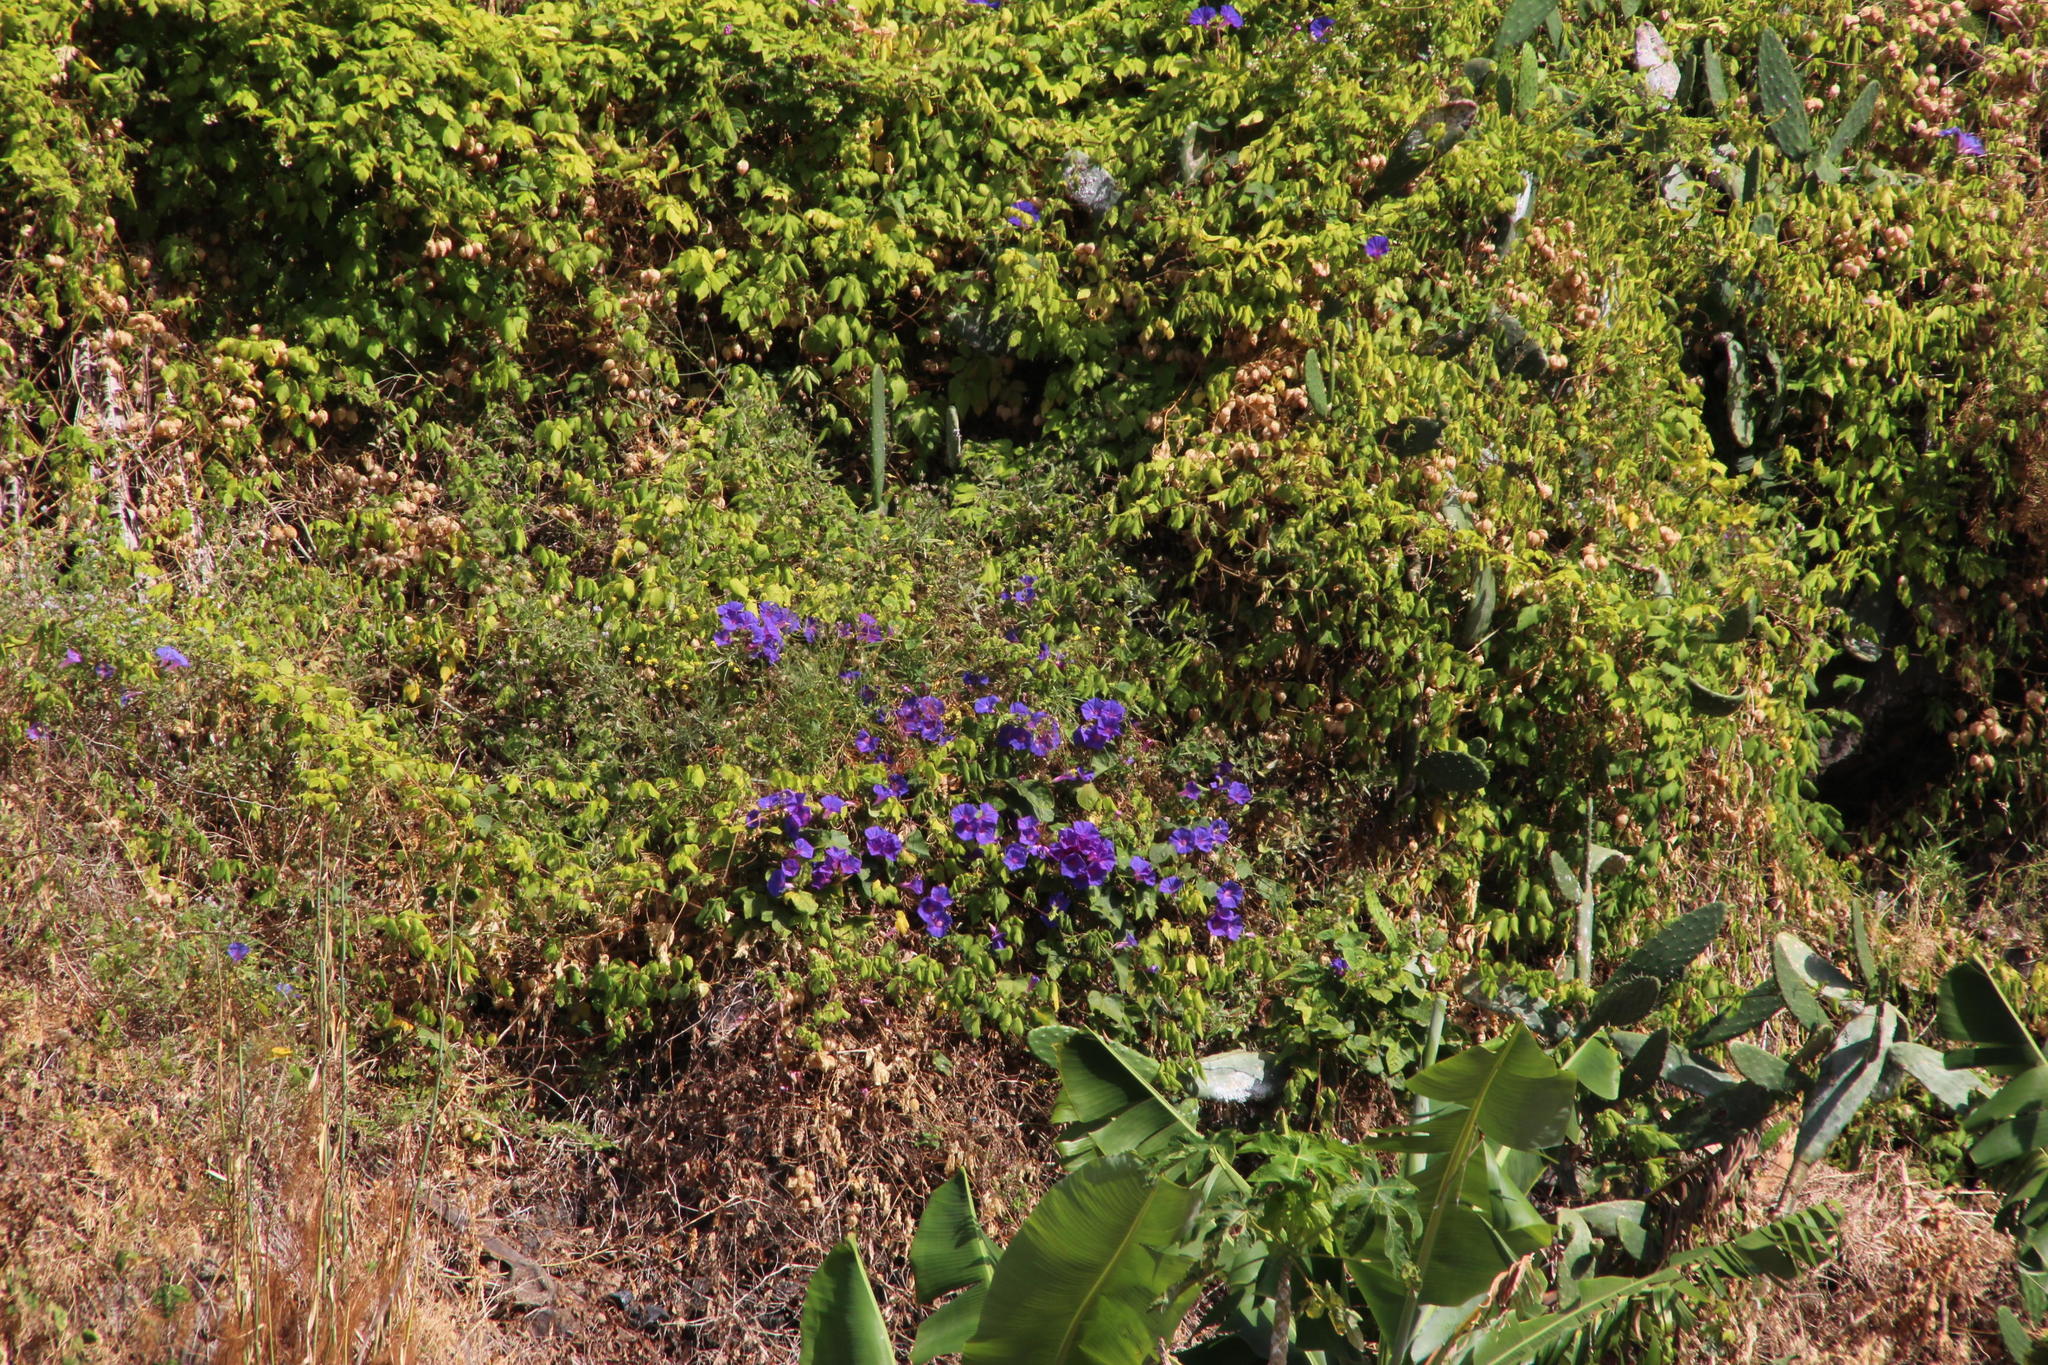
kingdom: Plantae
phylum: Tracheophyta
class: Magnoliopsida
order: Solanales
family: Convolvulaceae
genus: Ipomoea
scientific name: Ipomoea indica
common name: Blue dawnflower
